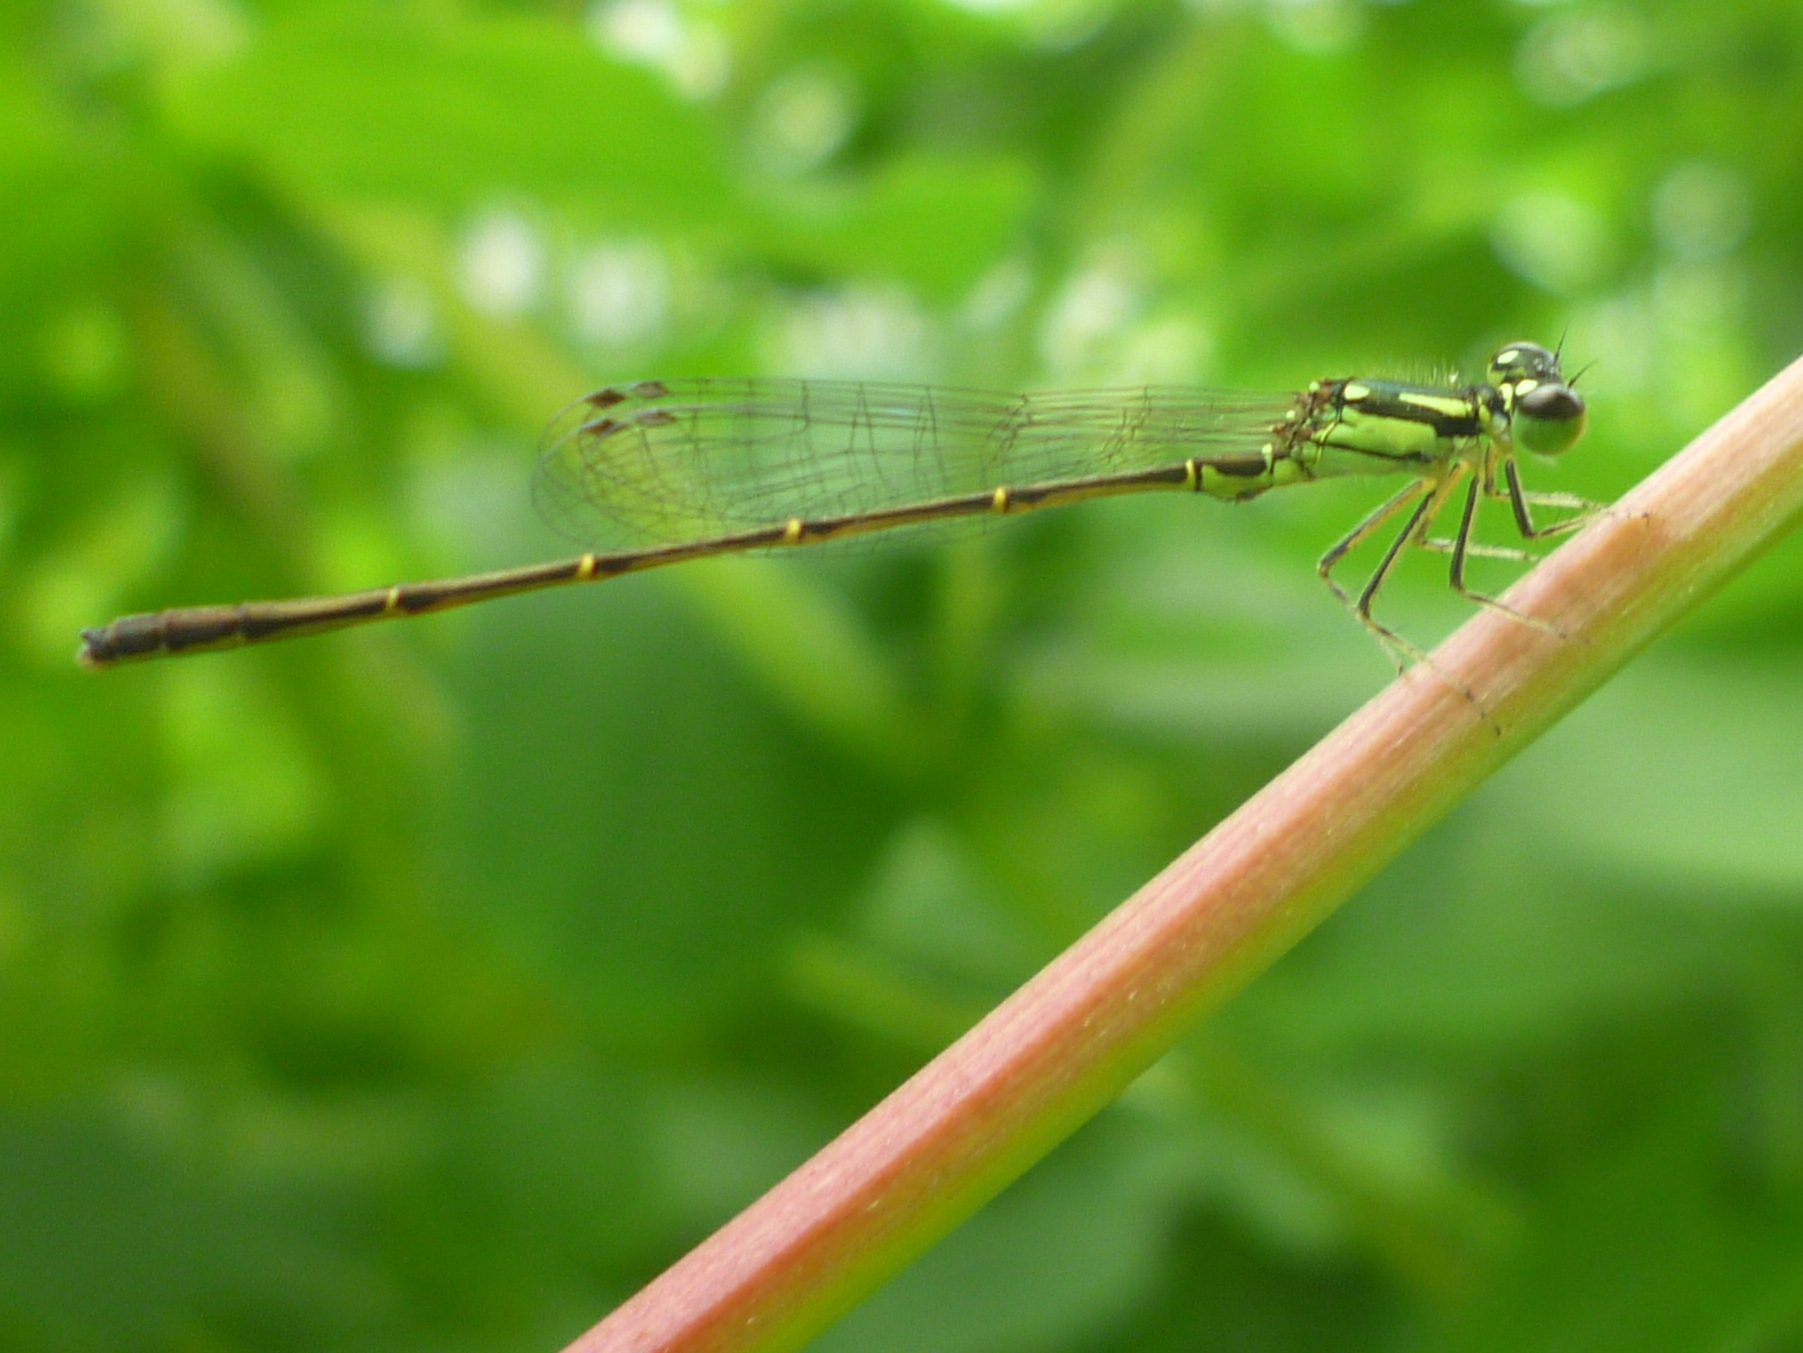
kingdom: Animalia
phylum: Arthropoda
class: Insecta
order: Odonata
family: Coenagrionidae
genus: Ischnura
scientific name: Ischnura posita
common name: Fragile forktail
